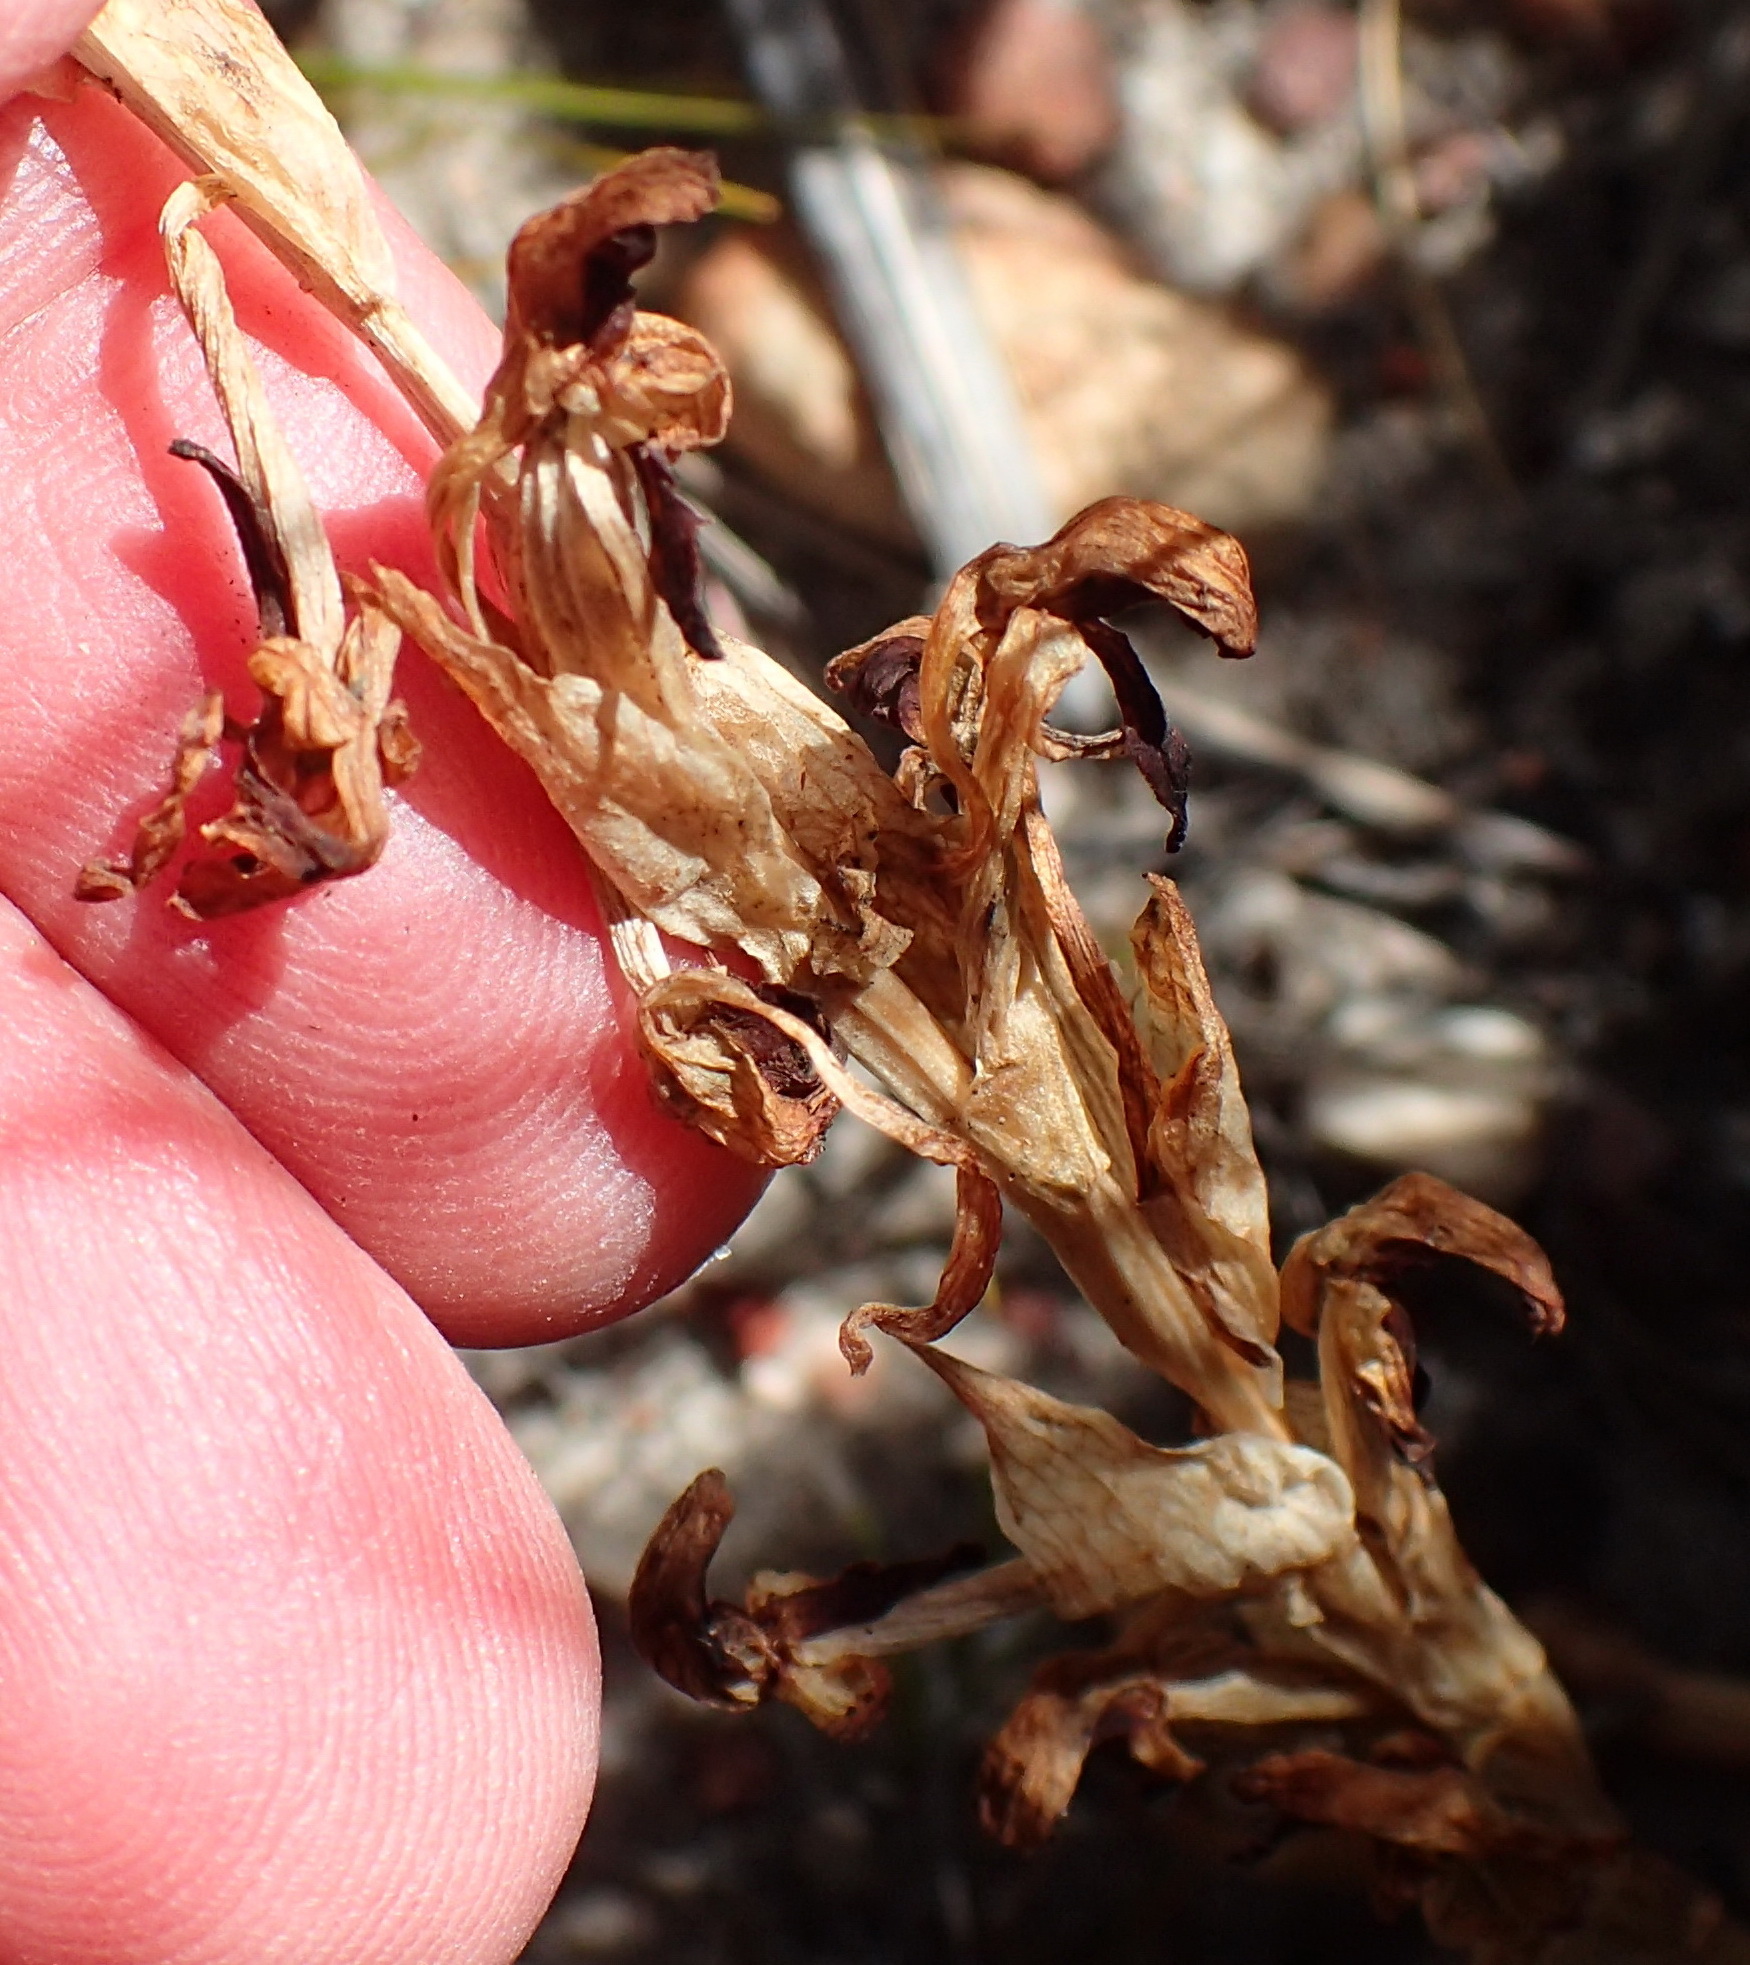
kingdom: Plantae
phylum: Tracheophyta
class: Liliopsida
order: Asparagales
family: Orchidaceae
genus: Disa
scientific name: Disa bolusiana
